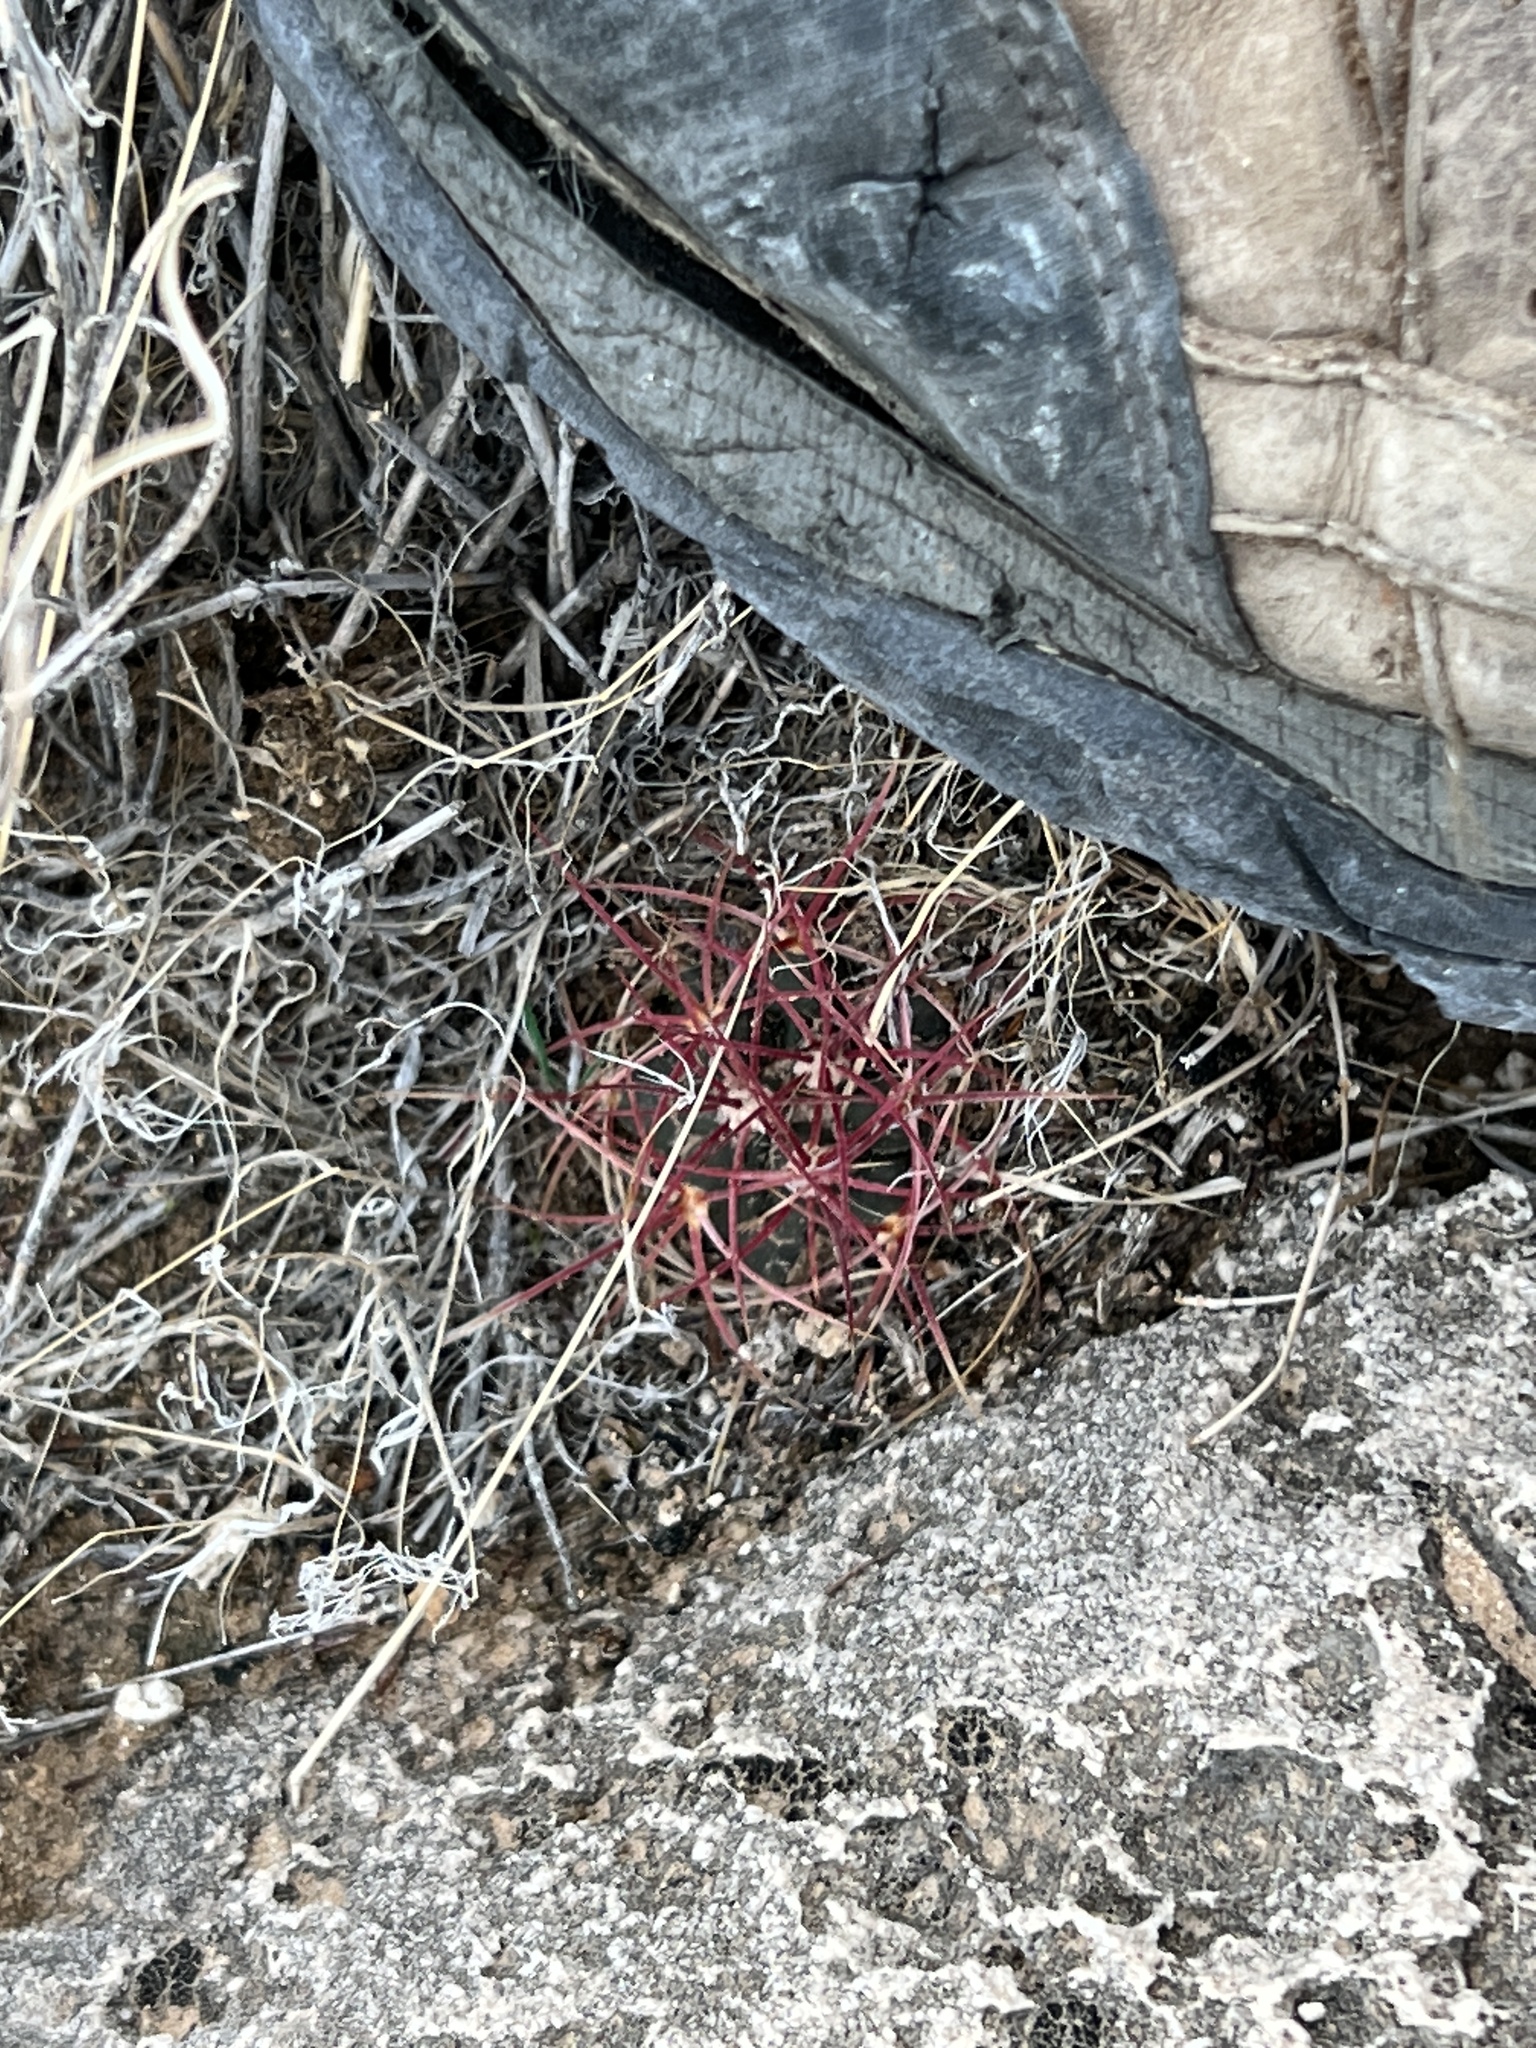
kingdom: Plantae
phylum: Tracheophyta
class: Magnoliopsida
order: Caryophyllales
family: Cactaceae
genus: Ferocactus
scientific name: Ferocactus cylindraceus
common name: California barrel cactus
